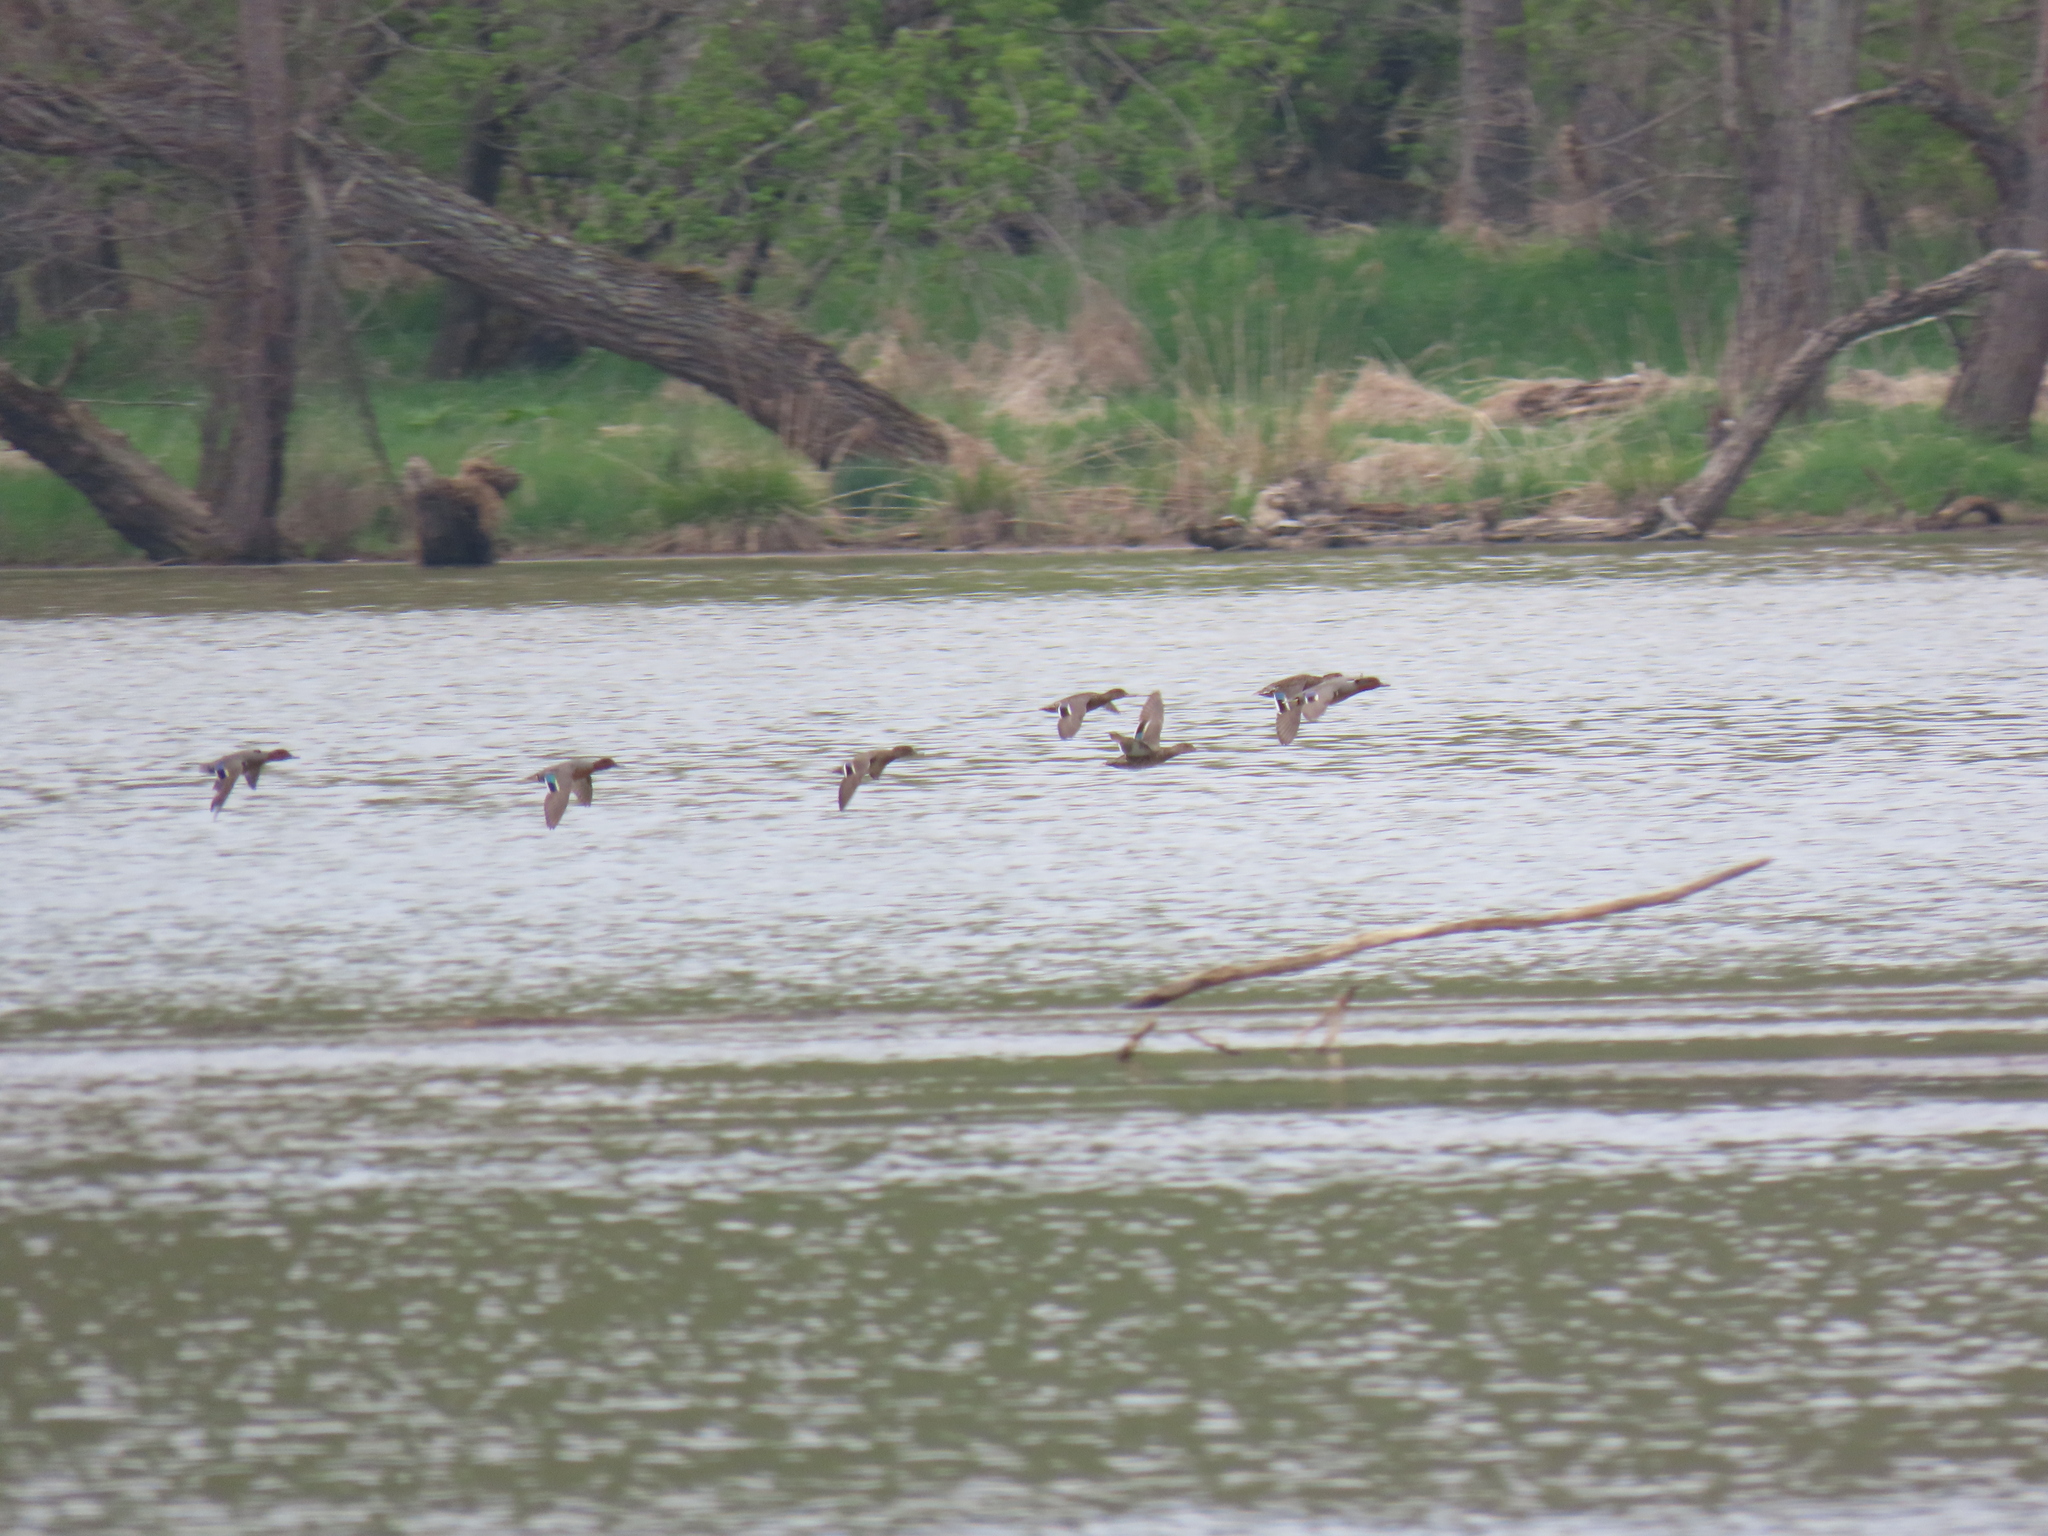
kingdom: Animalia
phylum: Chordata
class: Aves
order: Anseriformes
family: Anatidae
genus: Anas
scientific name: Anas crecca
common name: Eurasian teal
